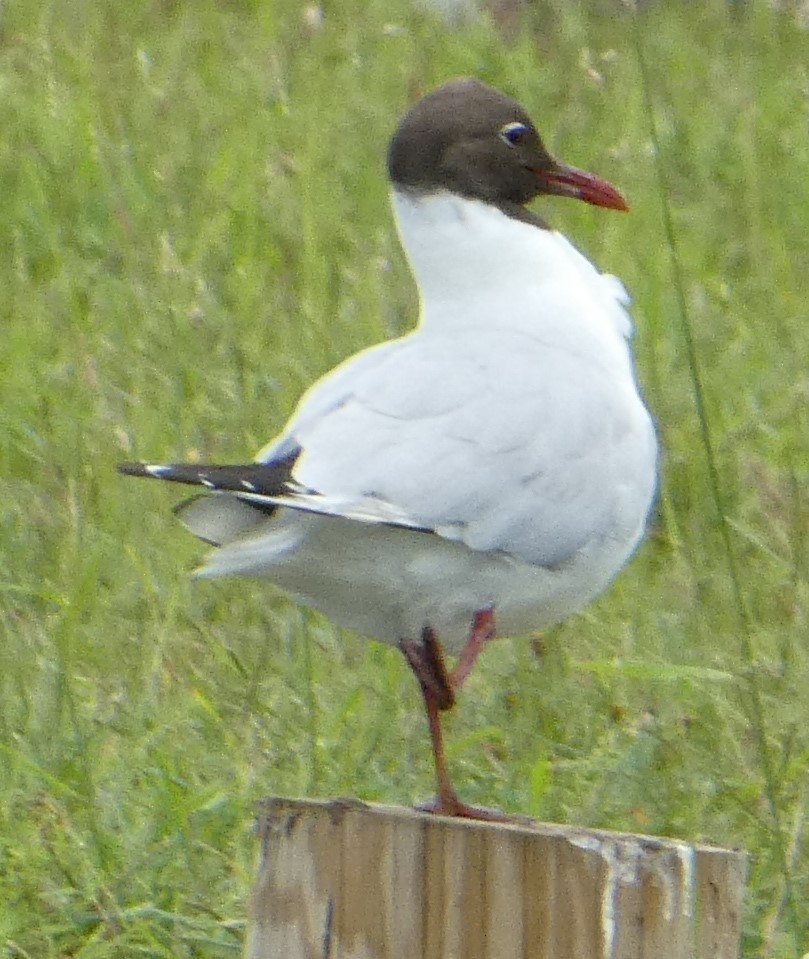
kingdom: Animalia
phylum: Chordata
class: Aves
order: Charadriiformes
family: Laridae
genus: Chroicocephalus
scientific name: Chroicocephalus ridibundus
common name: Black-headed gull
